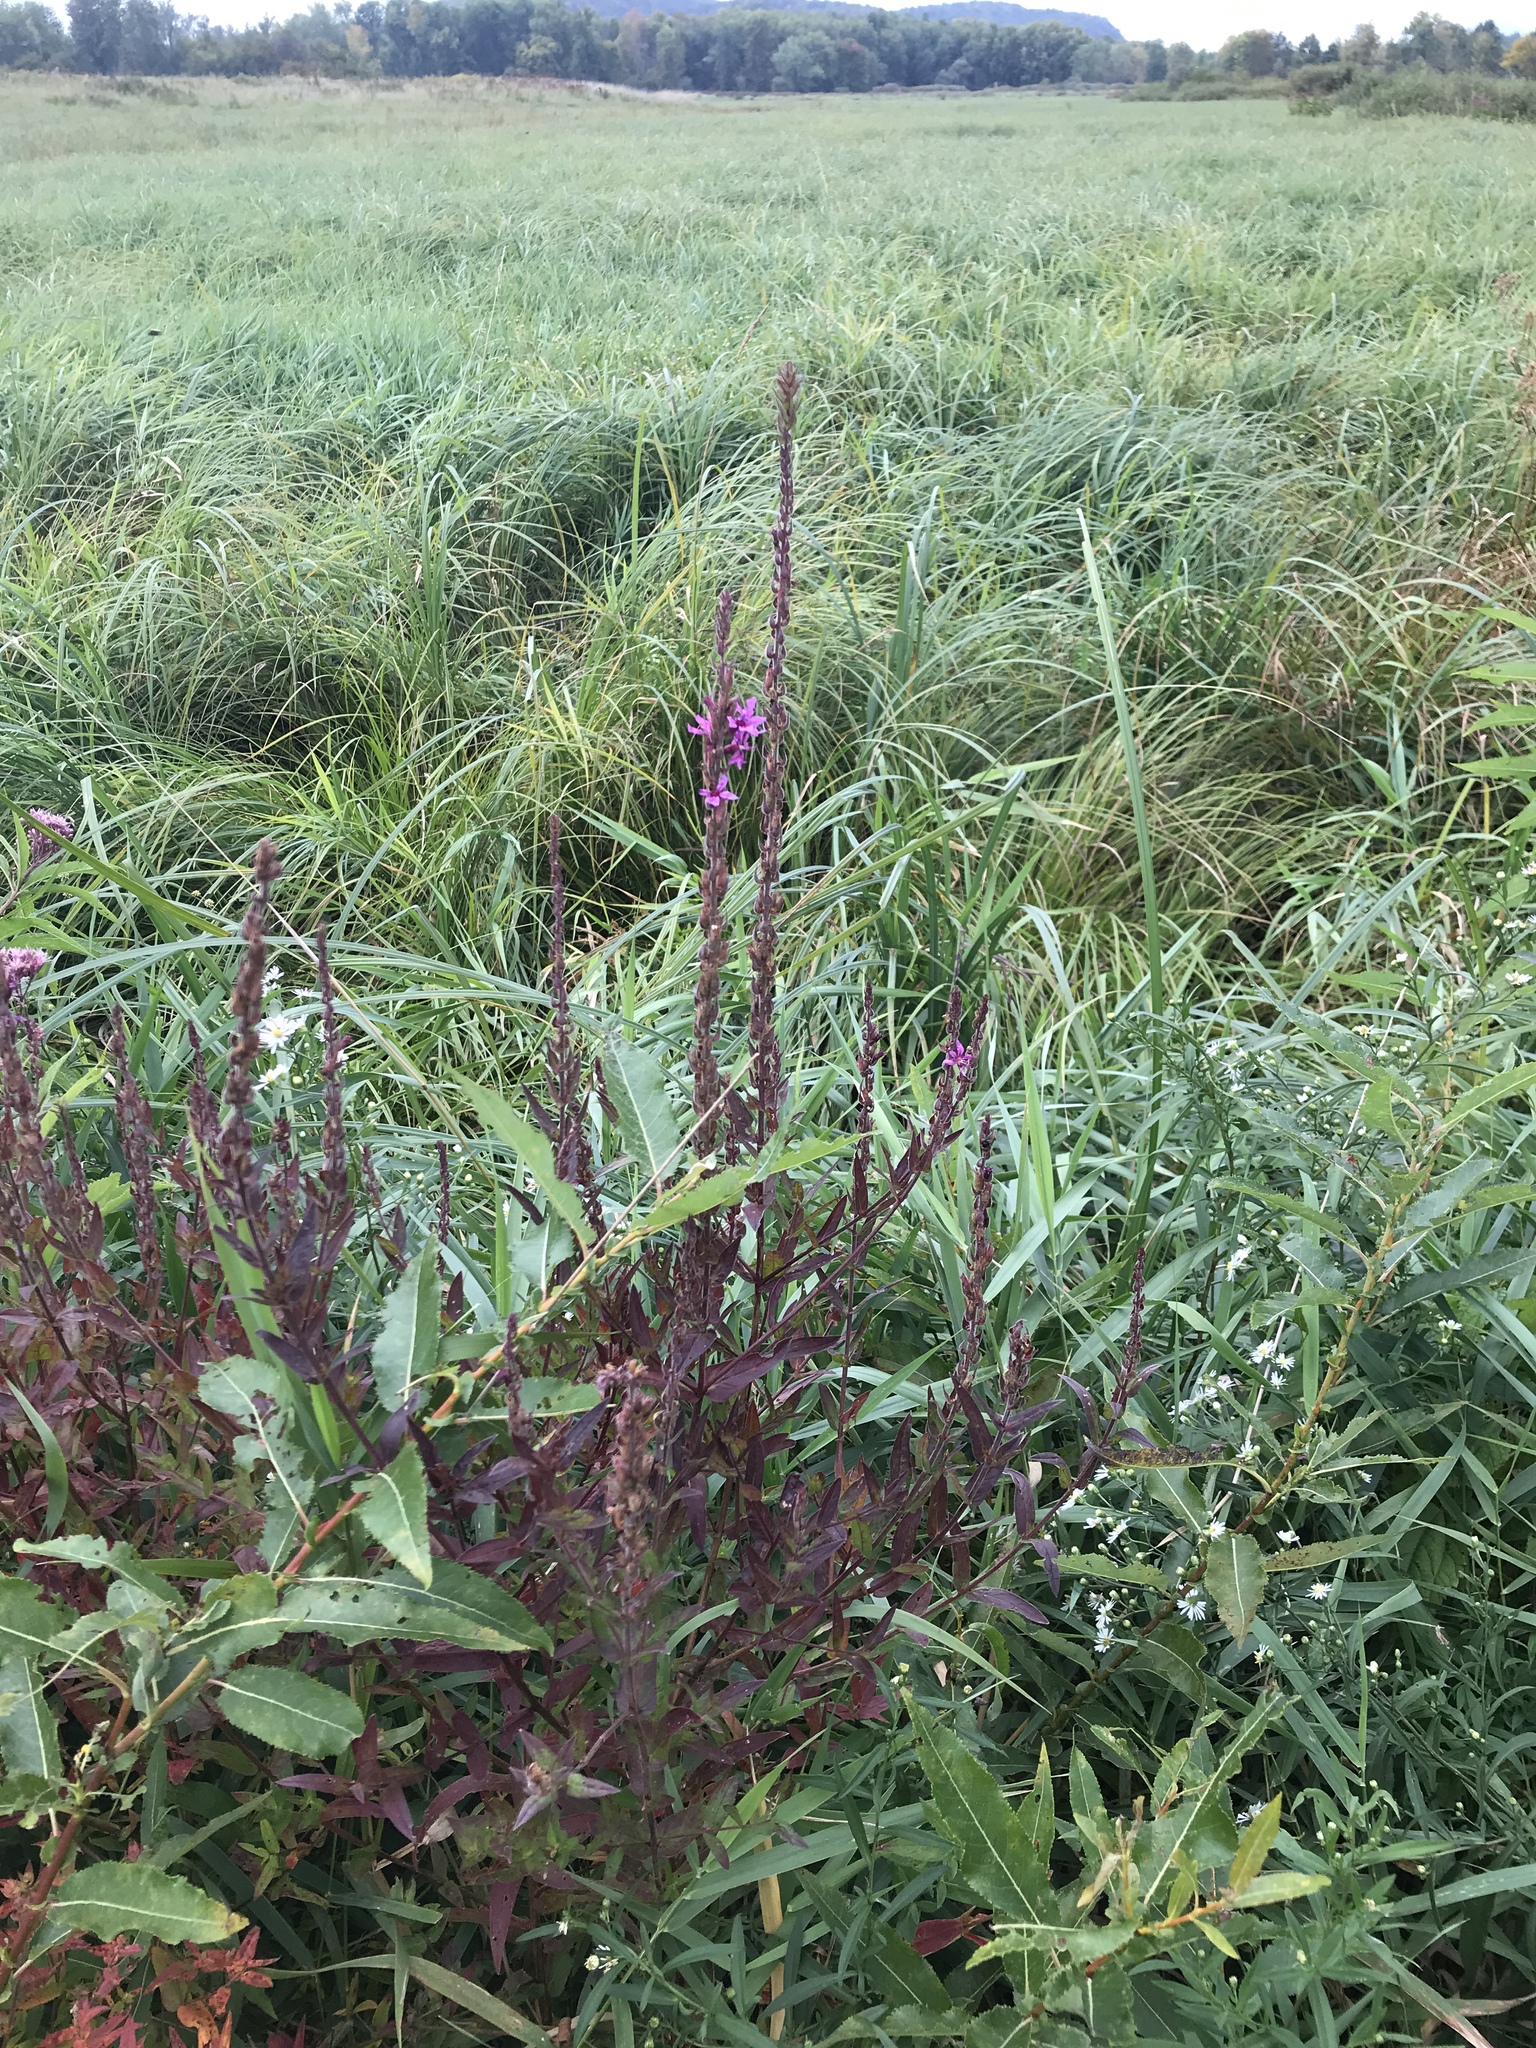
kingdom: Plantae
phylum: Tracheophyta
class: Magnoliopsida
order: Myrtales
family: Lythraceae
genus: Lythrum
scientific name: Lythrum salicaria
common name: Purple loosestrife
